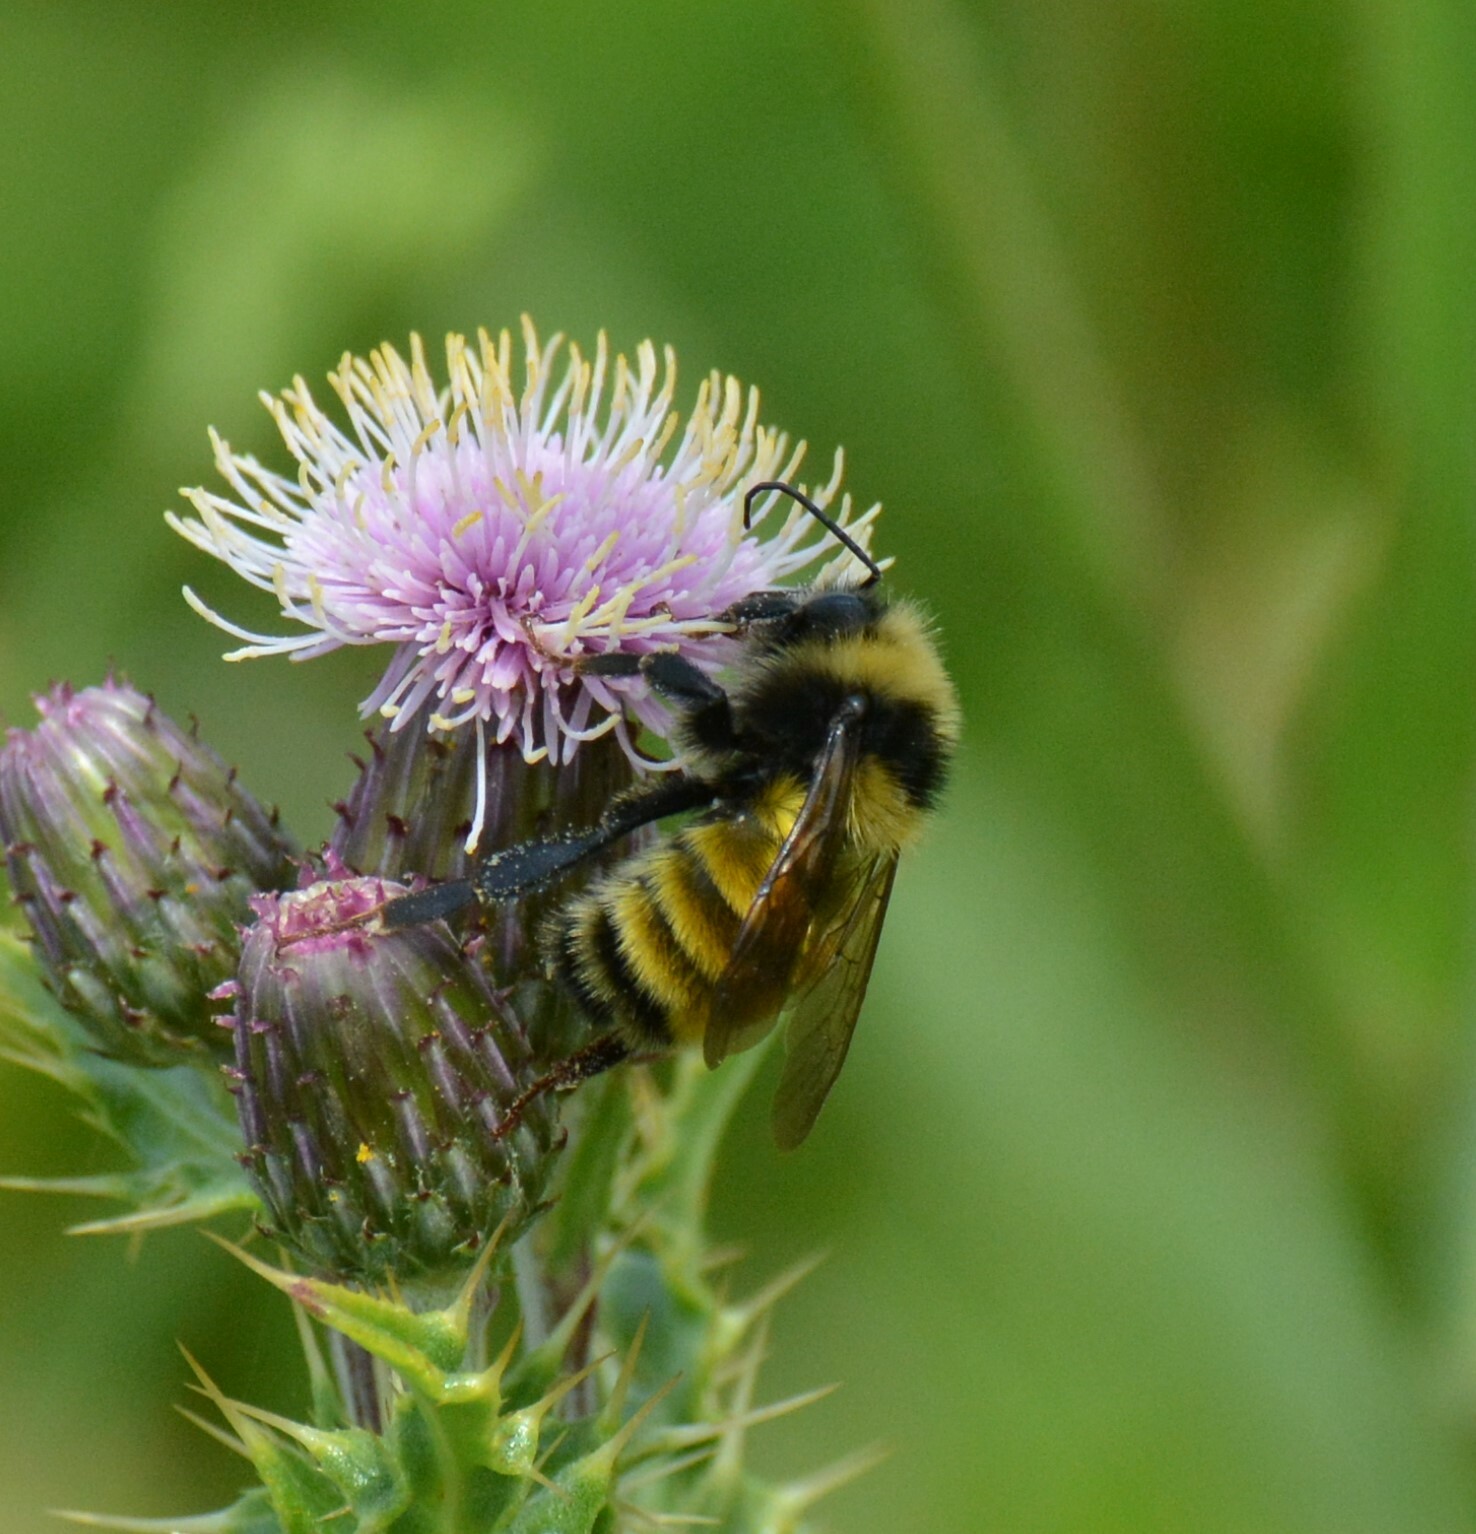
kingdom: Animalia
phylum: Arthropoda
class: Insecta
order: Hymenoptera
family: Apidae
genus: Bombus
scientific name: Bombus borealis
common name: Northern amber bumble bee
